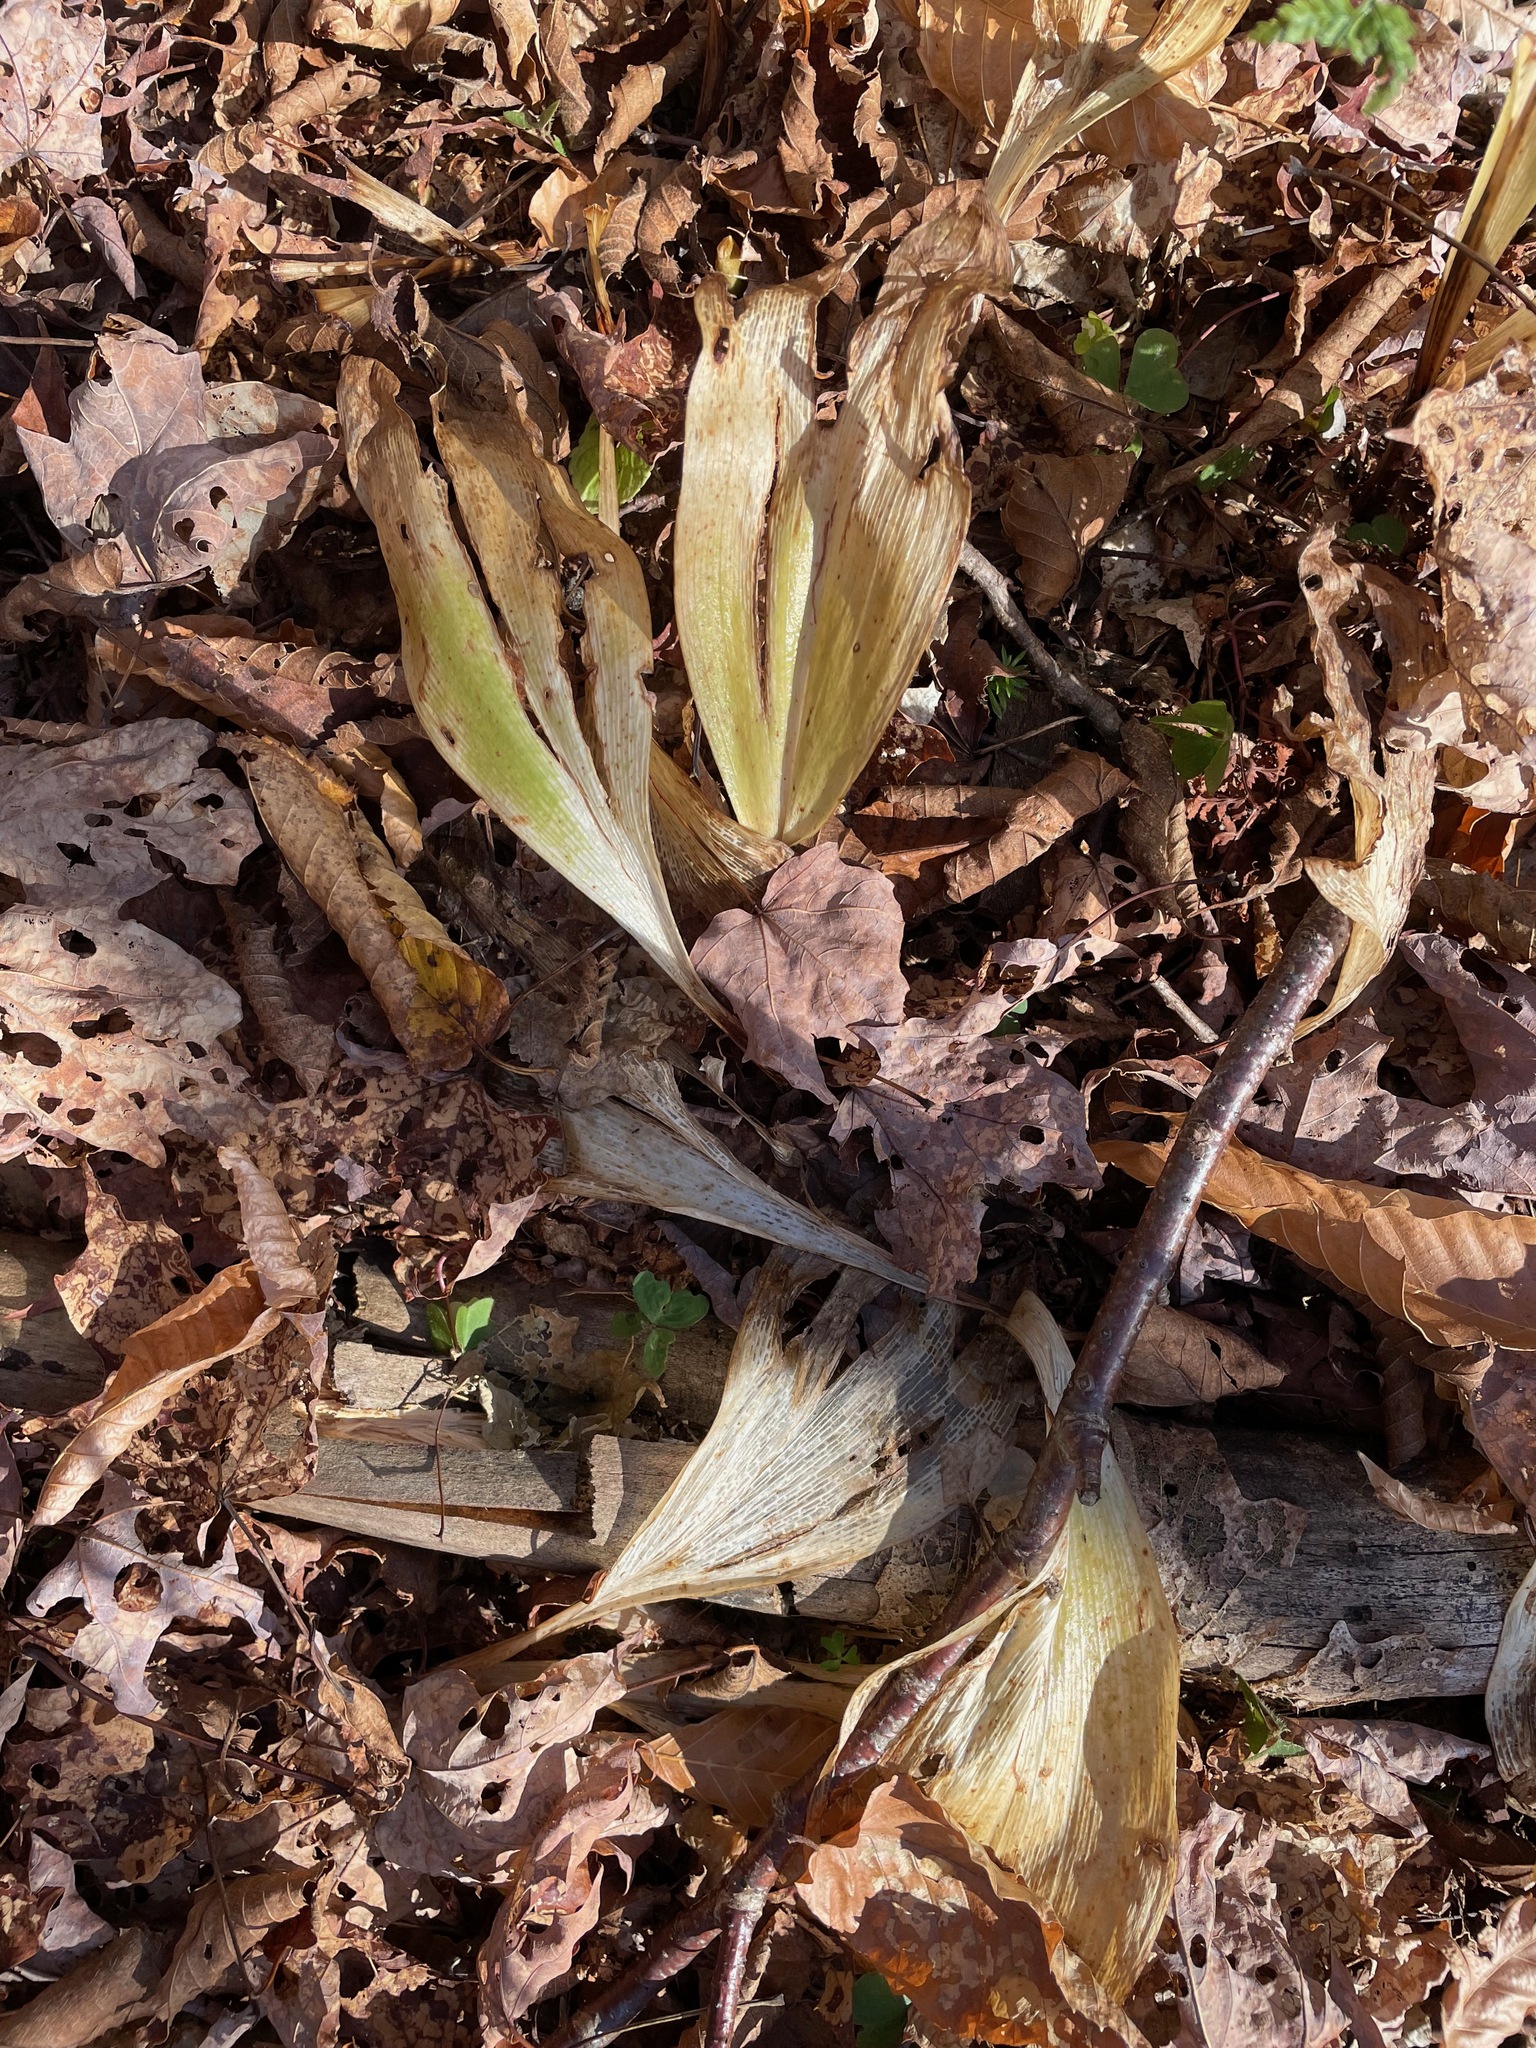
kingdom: Plantae
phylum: Tracheophyta
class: Liliopsida
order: Liliales
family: Liliaceae
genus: Clintonia
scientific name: Clintonia borealis
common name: Yellow clintonia
